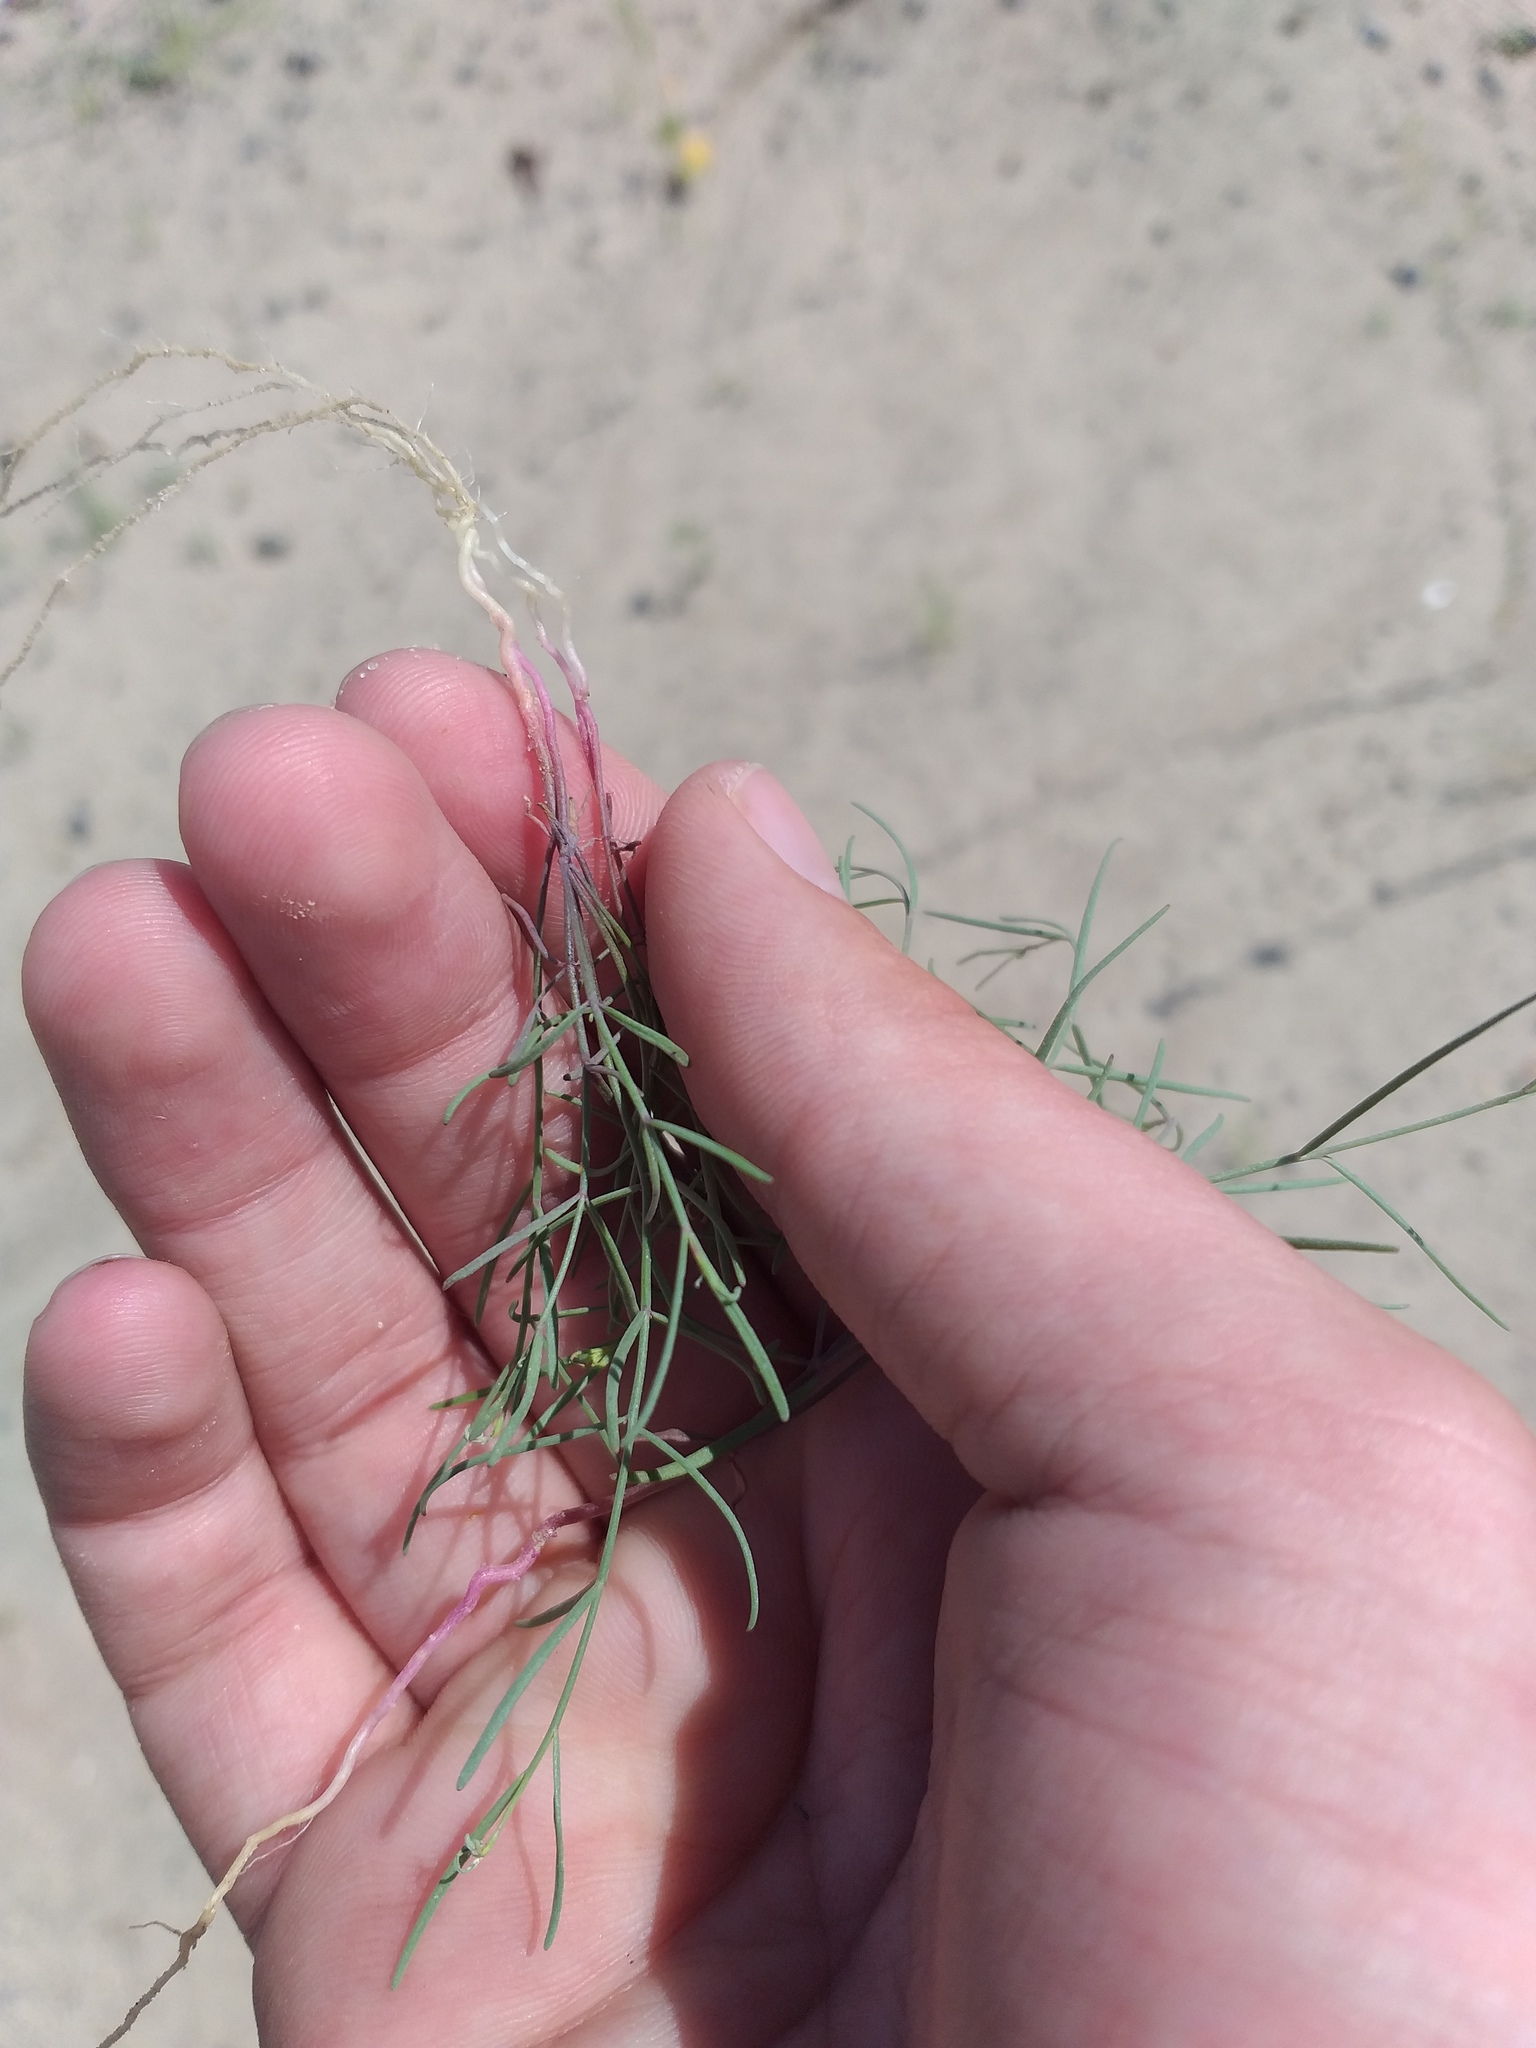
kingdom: Plantae
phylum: Tracheophyta
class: Magnoliopsida
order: Lamiales
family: Plantaginaceae
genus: Linaria
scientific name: Linaria odora
